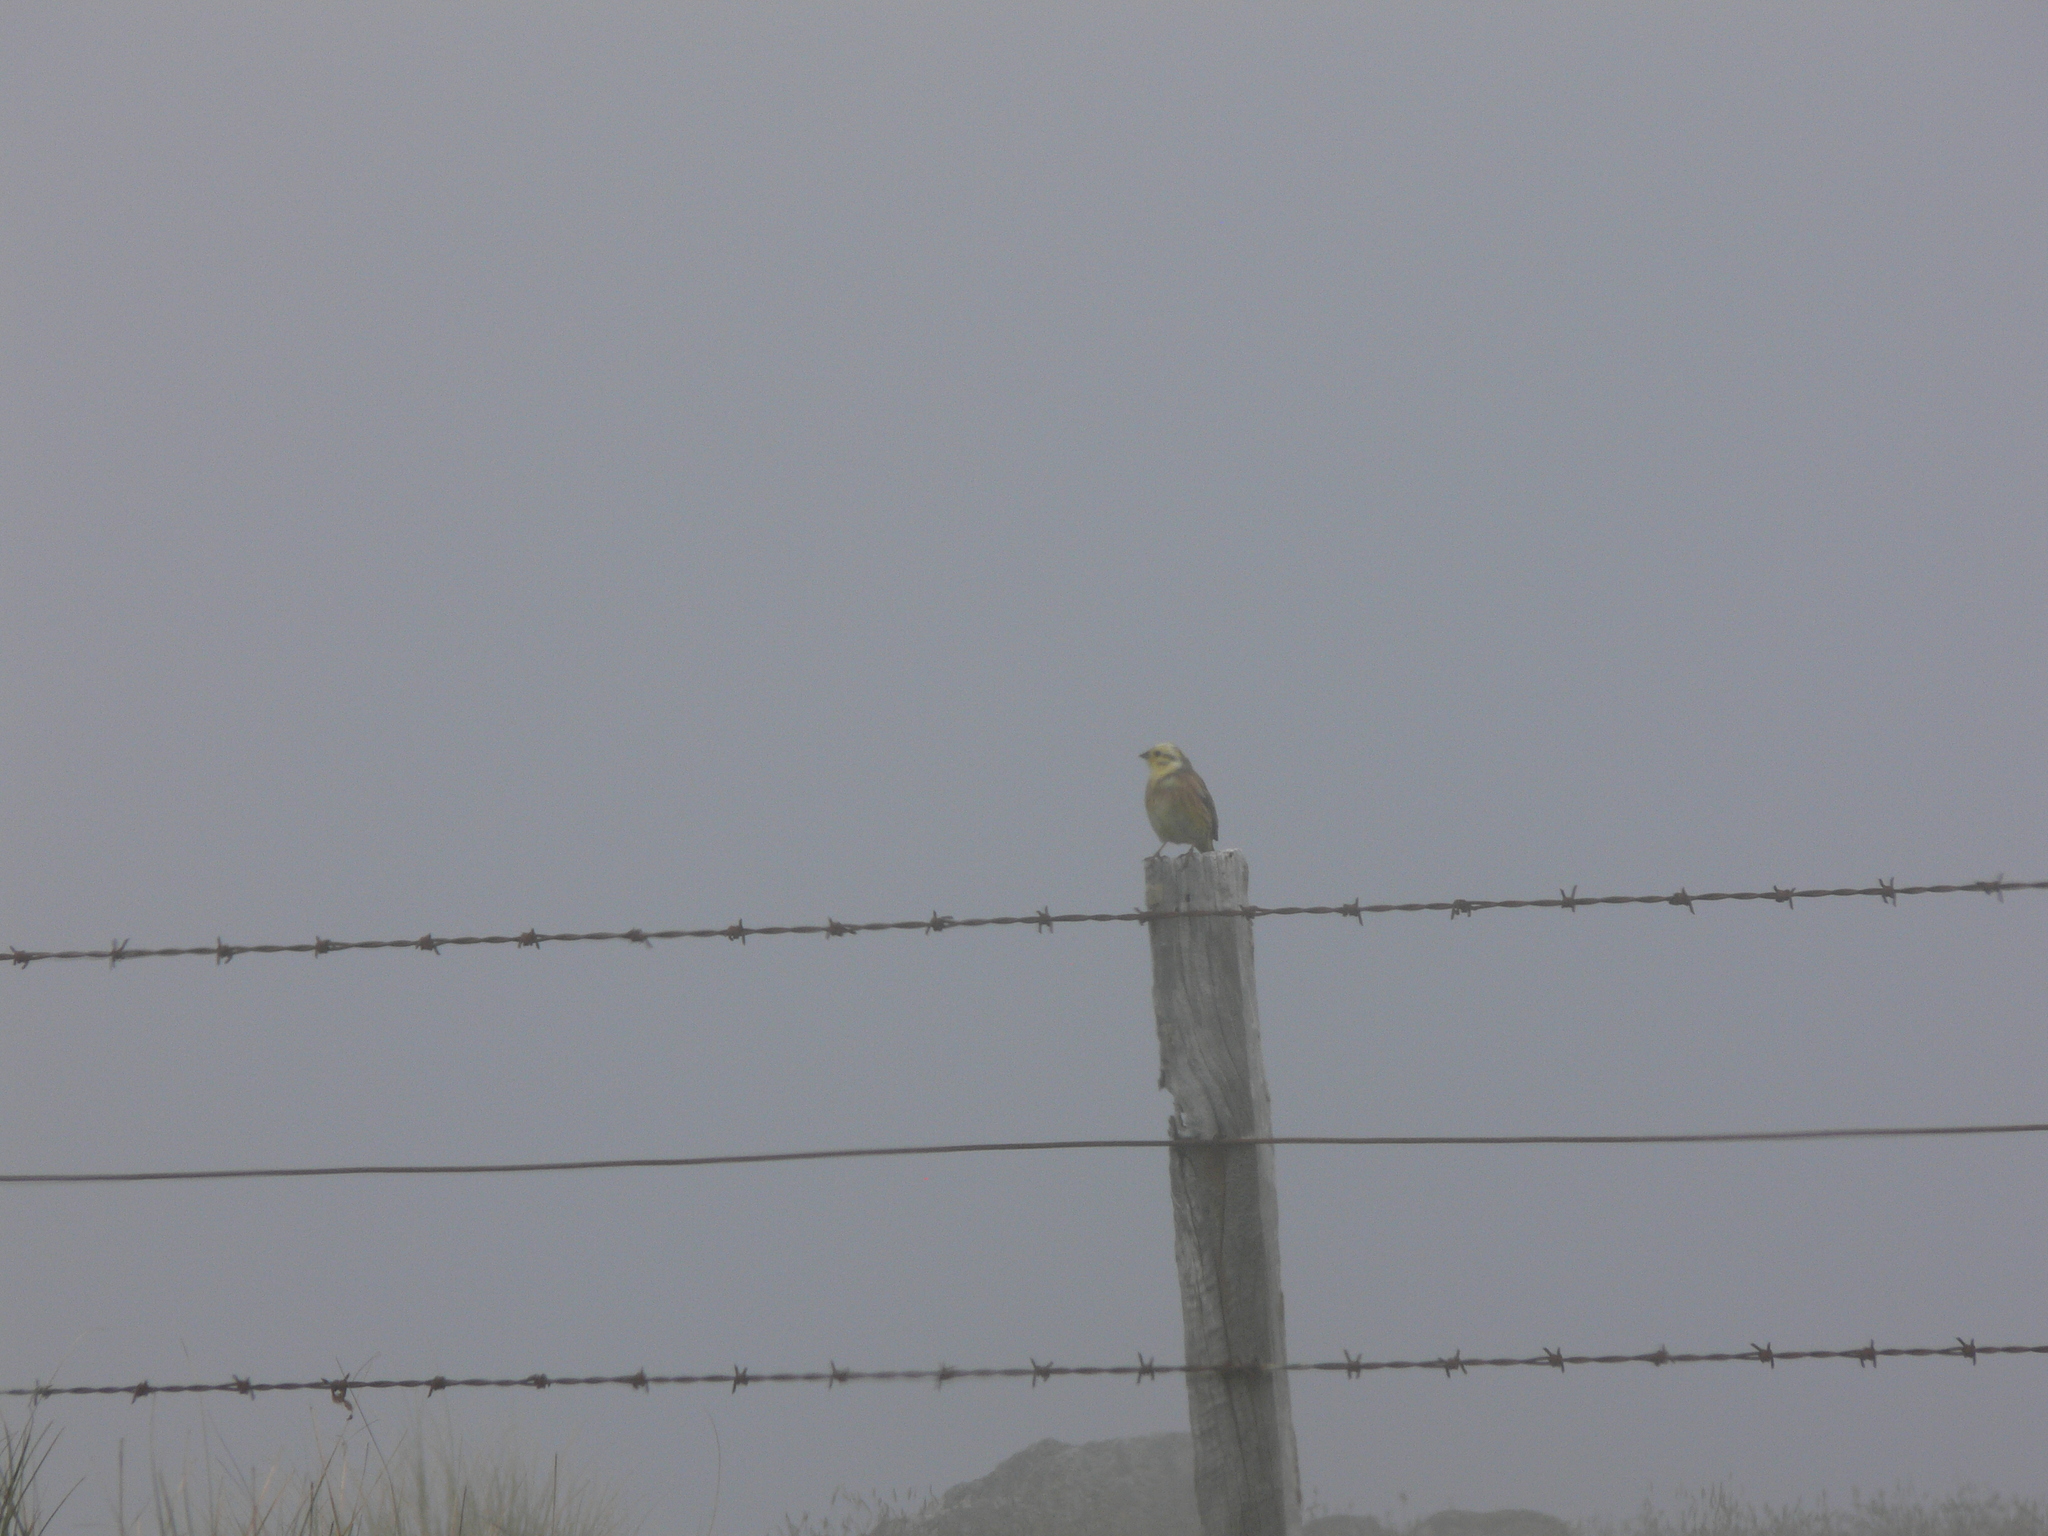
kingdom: Animalia
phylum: Chordata
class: Aves
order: Passeriformes
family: Emberizidae
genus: Emberiza
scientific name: Emberiza citrinella
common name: Yellowhammer
